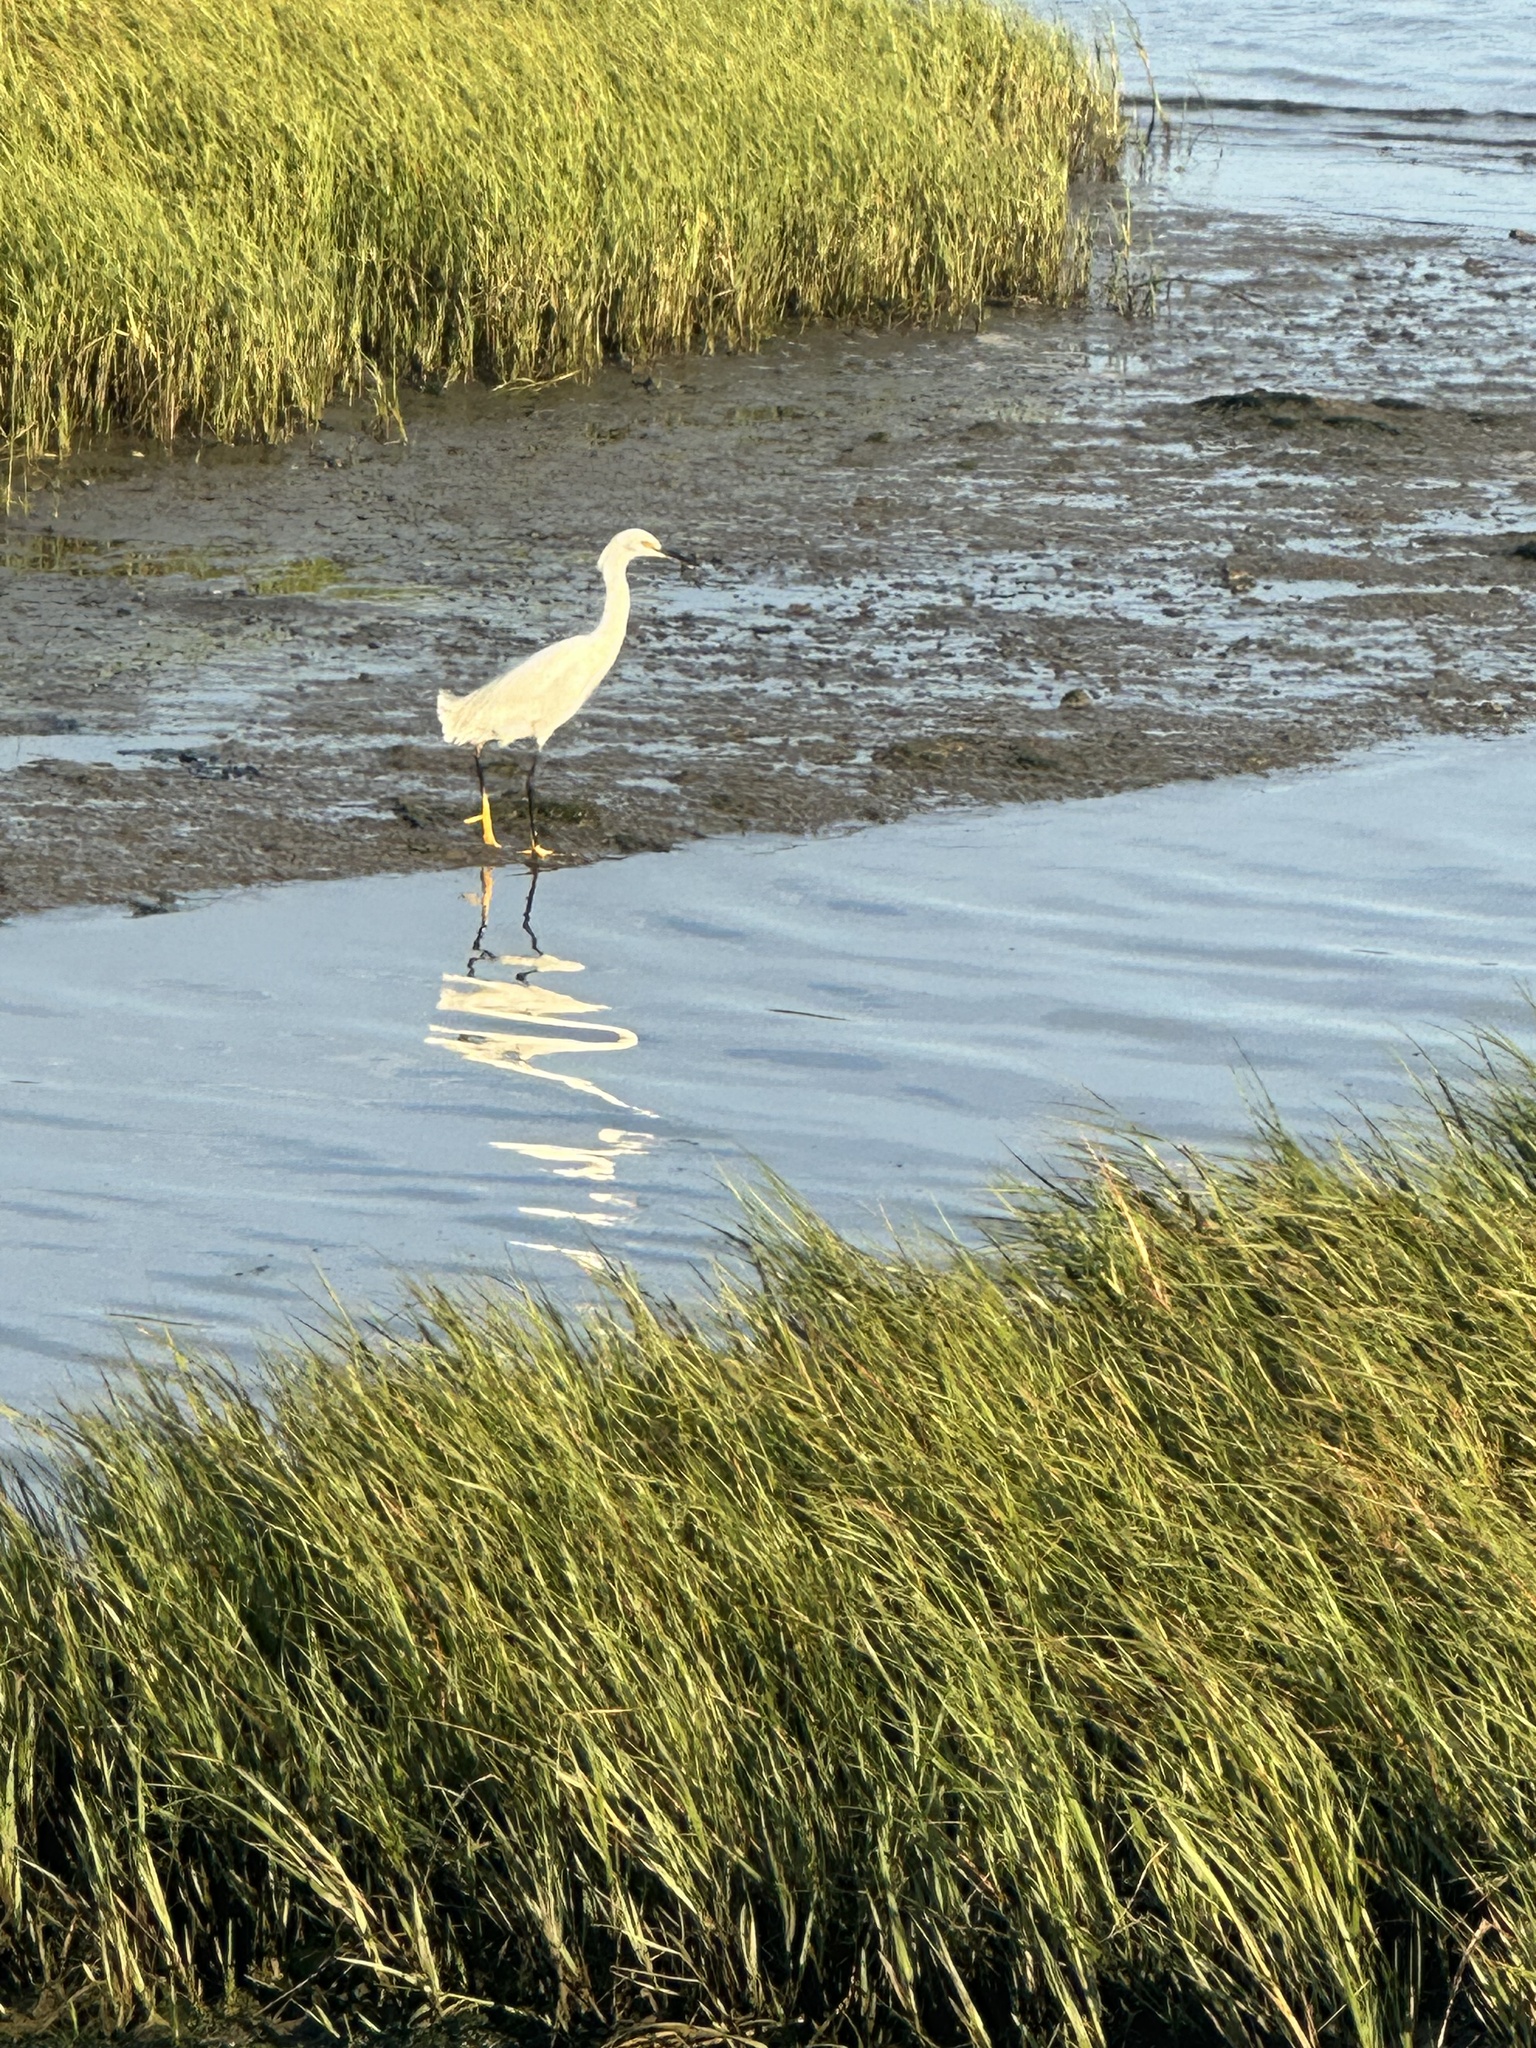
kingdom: Animalia
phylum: Chordata
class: Aves
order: Pelecaniformes
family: Ardeidae
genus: Egretta
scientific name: Egretta thula
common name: Snowy egret
